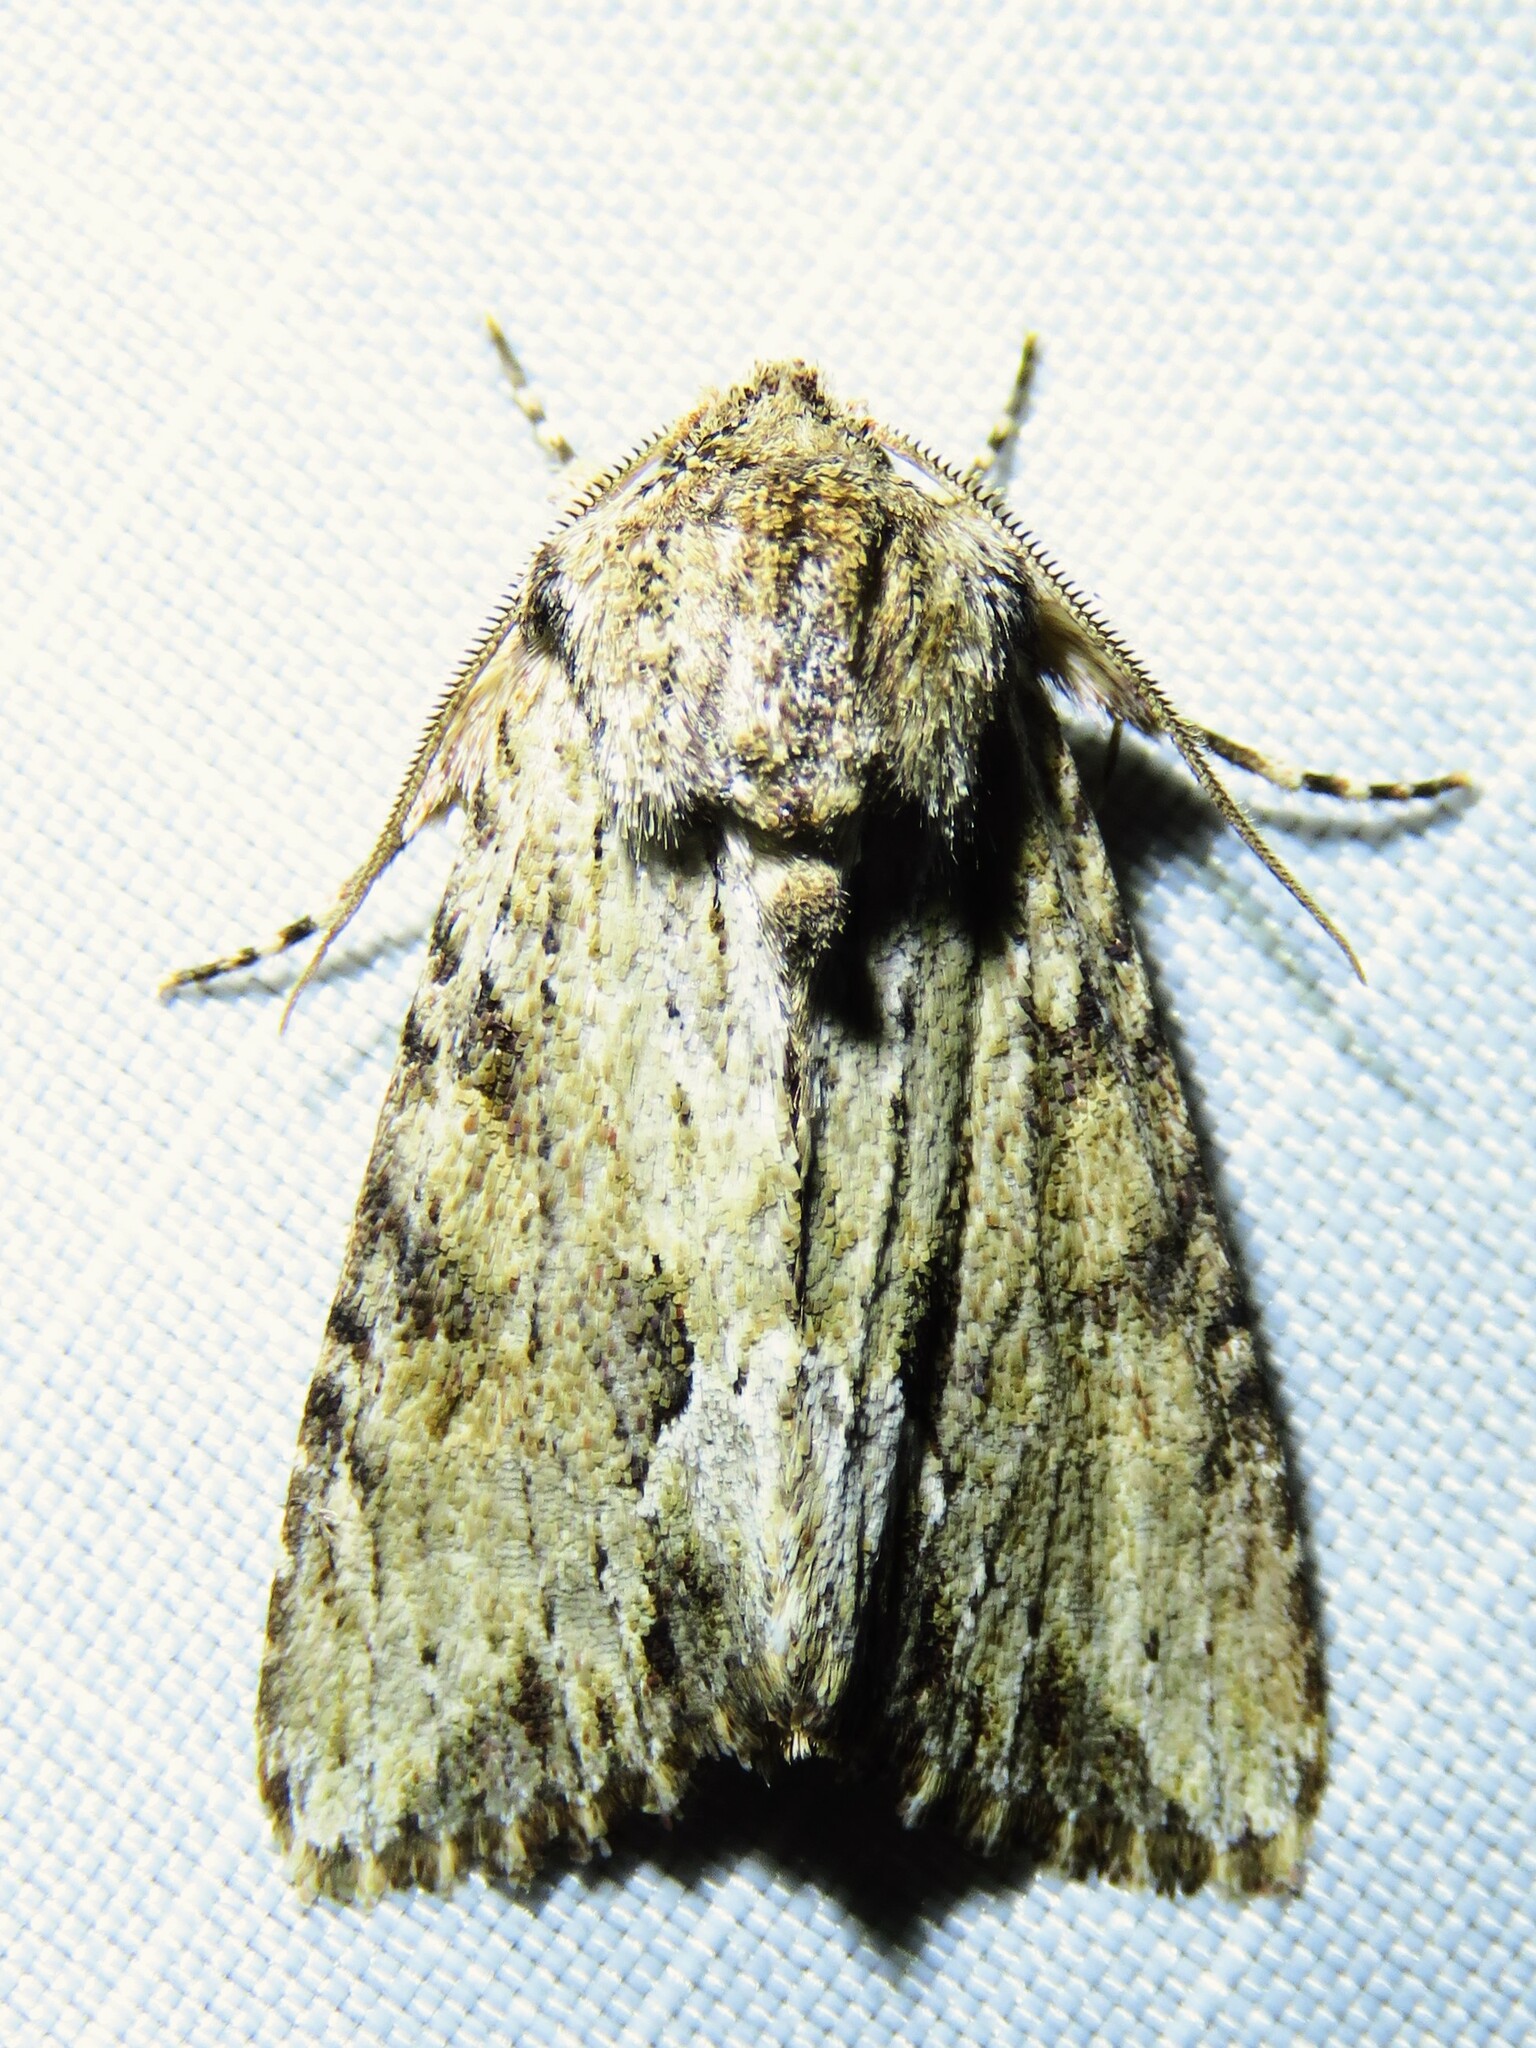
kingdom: Animalia
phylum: Arthropoda
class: Insecta
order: Lepidoptera
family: Noctuidae
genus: Achatia
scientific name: Achatia mucens
